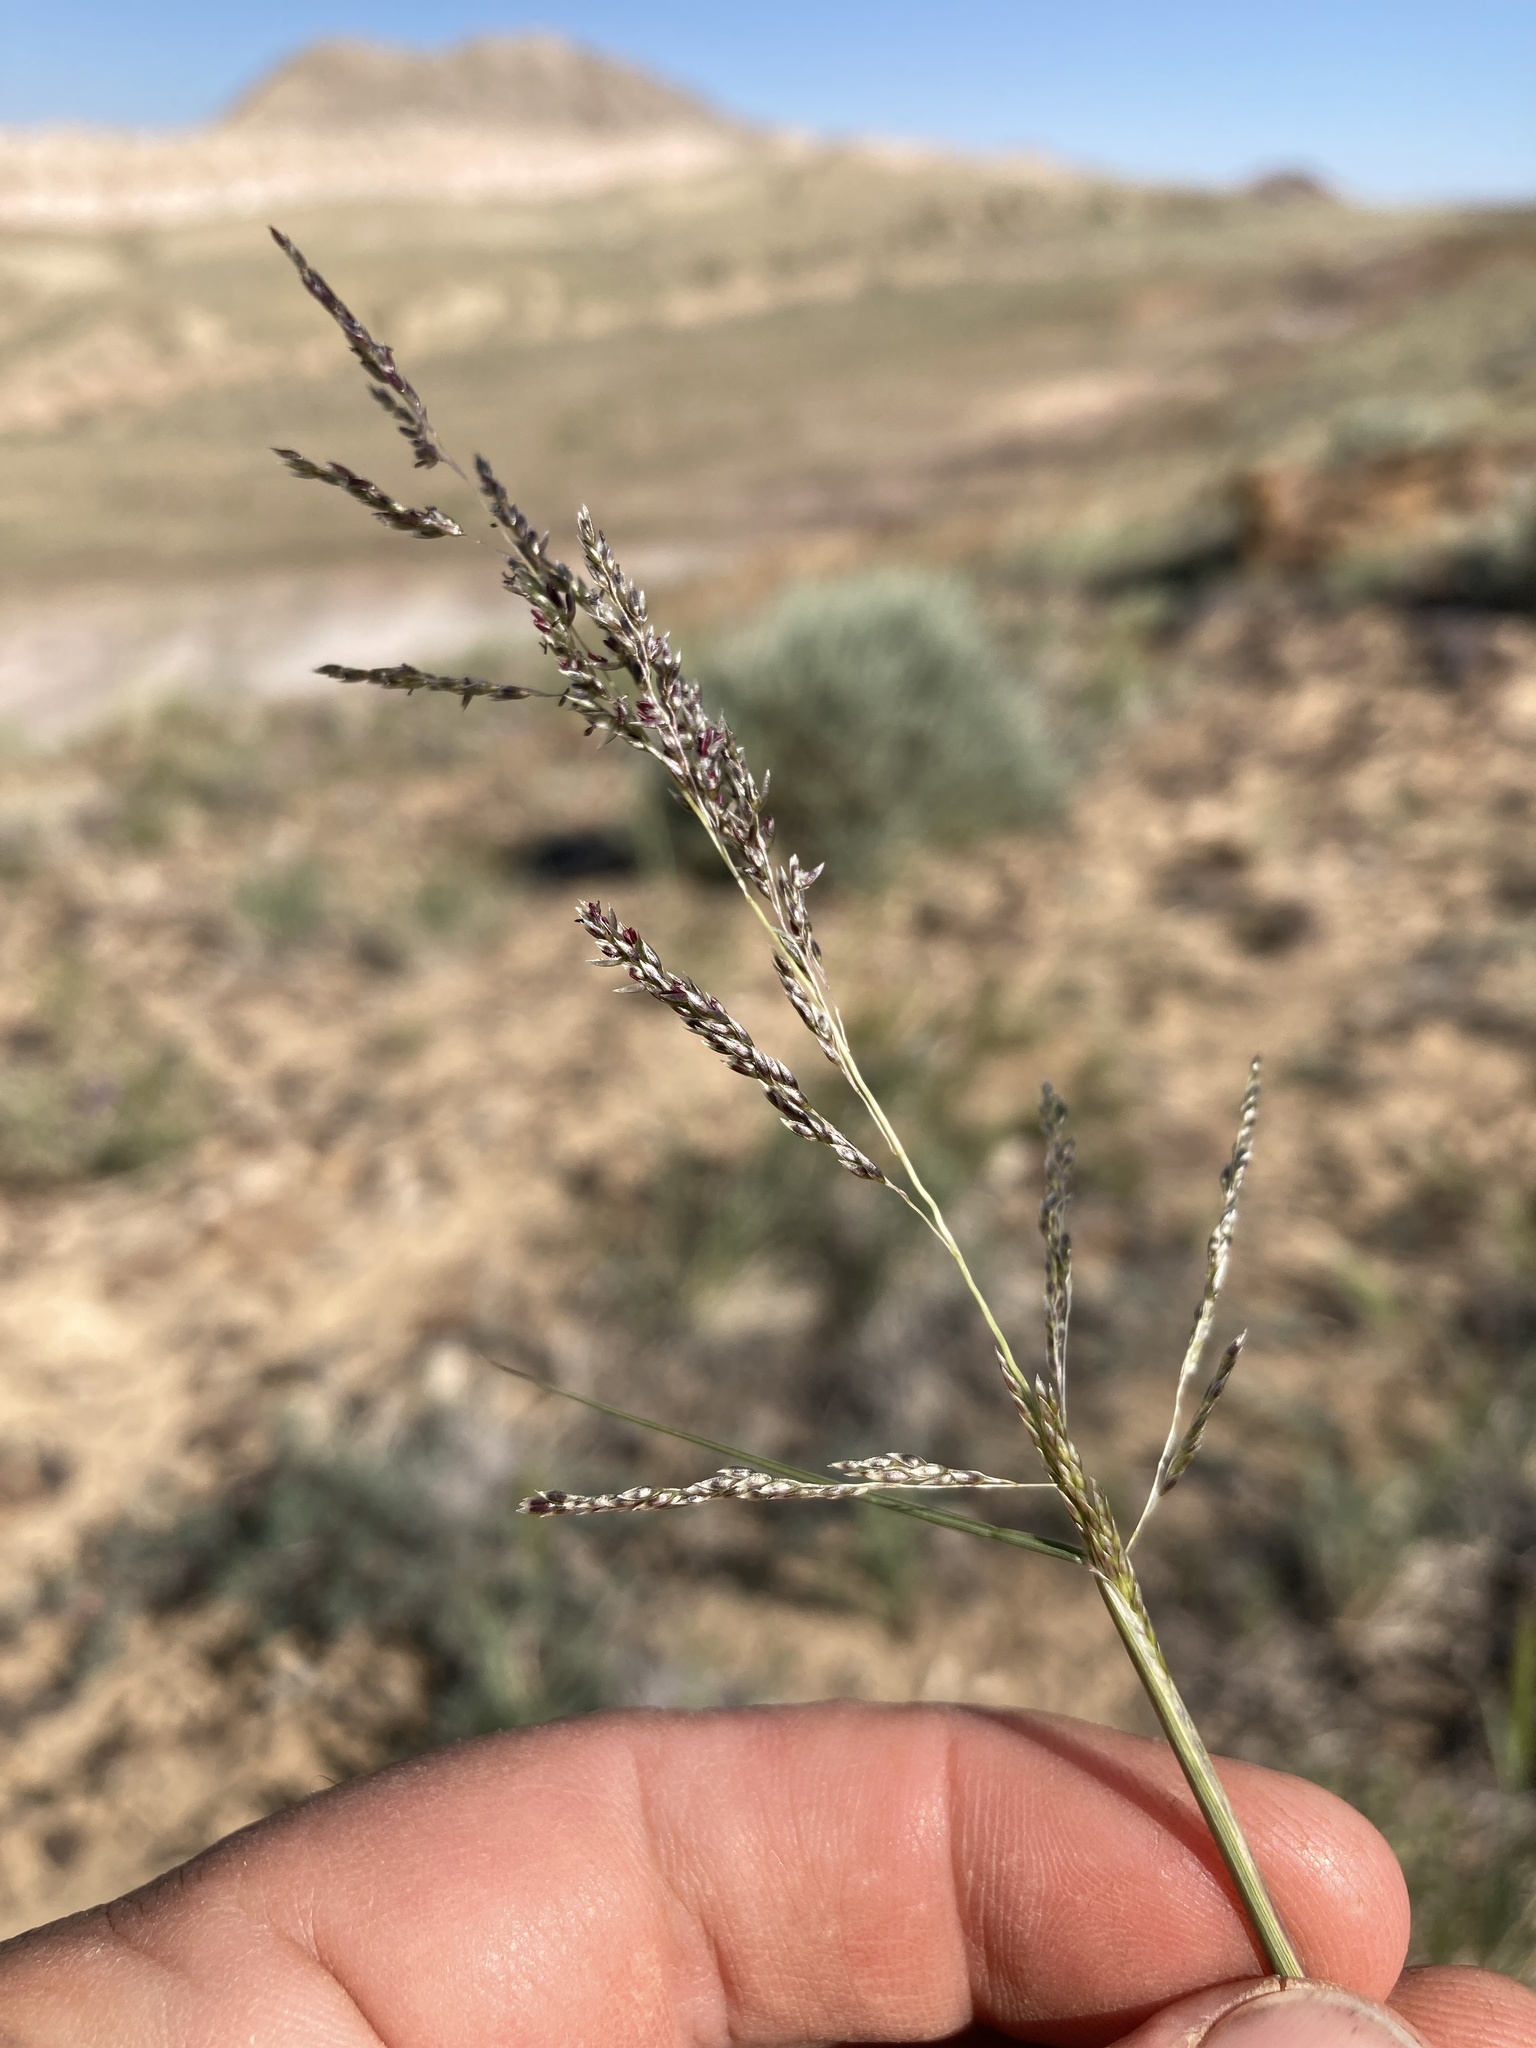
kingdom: Plantae
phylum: Tracheophyta
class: Liliopsida
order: Poales
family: Poaceae
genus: Sporobolus
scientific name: Sporobolus cryptandrus
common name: Sand dropseed
